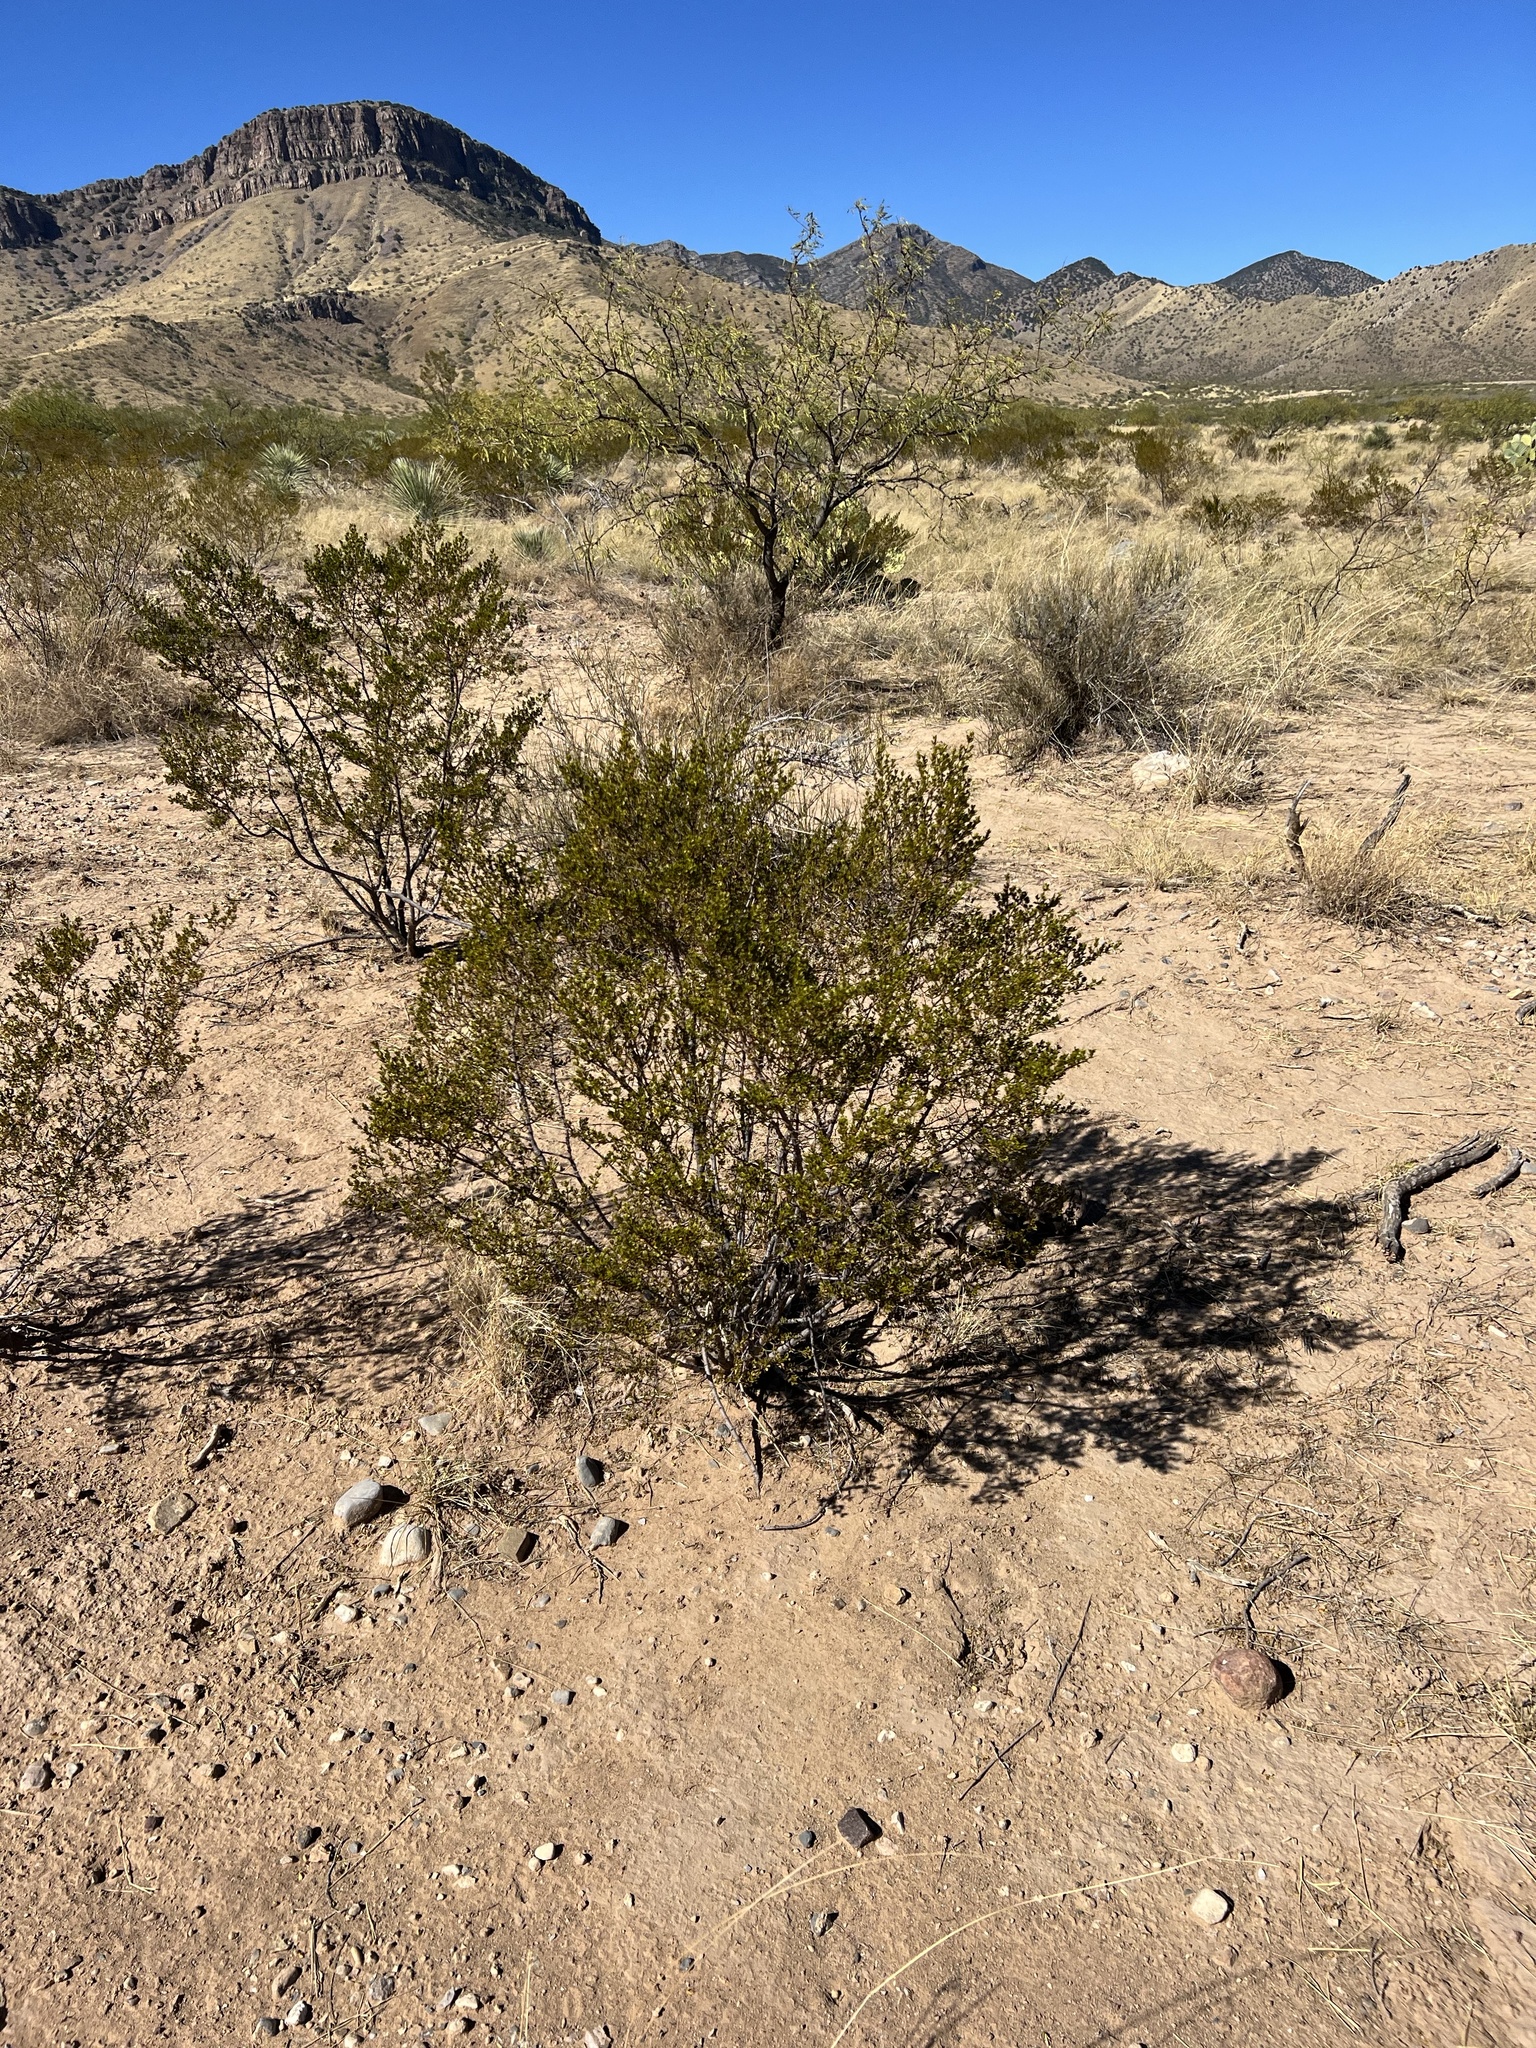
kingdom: Plantae
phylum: Tracheophyta
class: Magnoliopsida
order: Zygophyllales
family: Zygophyllaceae
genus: Larrea
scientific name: Larrea tridentata
